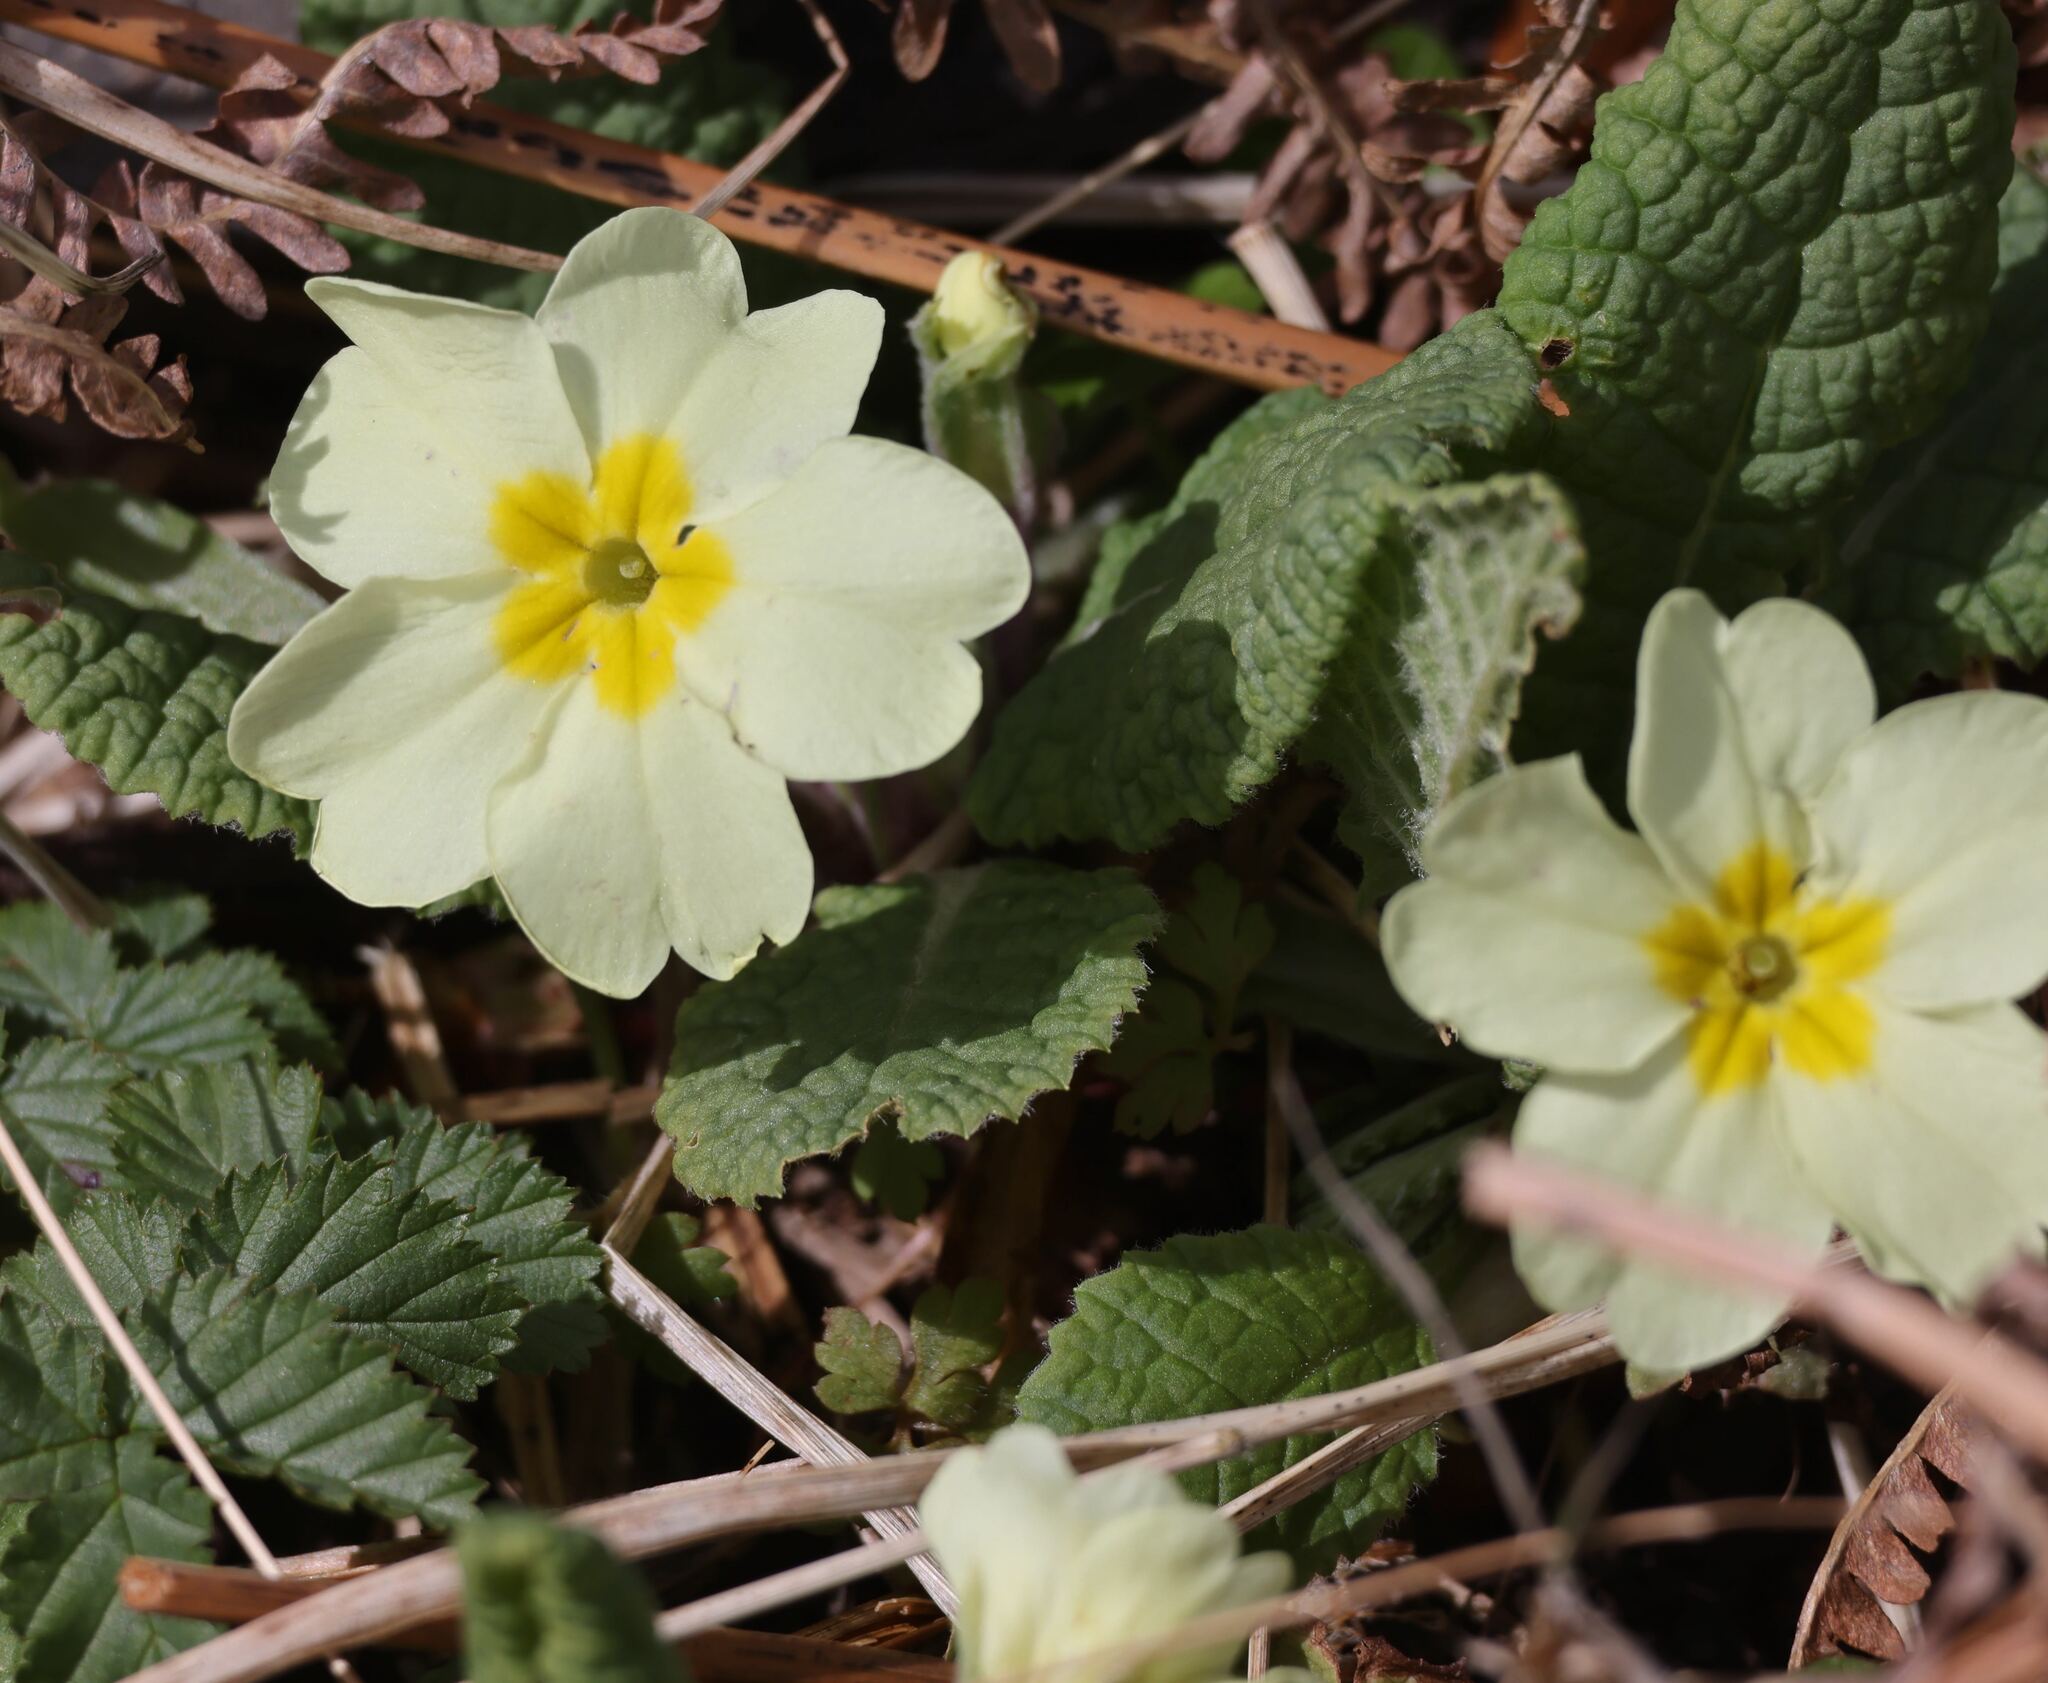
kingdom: Plantae
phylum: Tracheophyta
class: Magnoliopsida
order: Ericales
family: Primulaceae
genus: Primula
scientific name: Primula vulgaris
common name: Primrose
